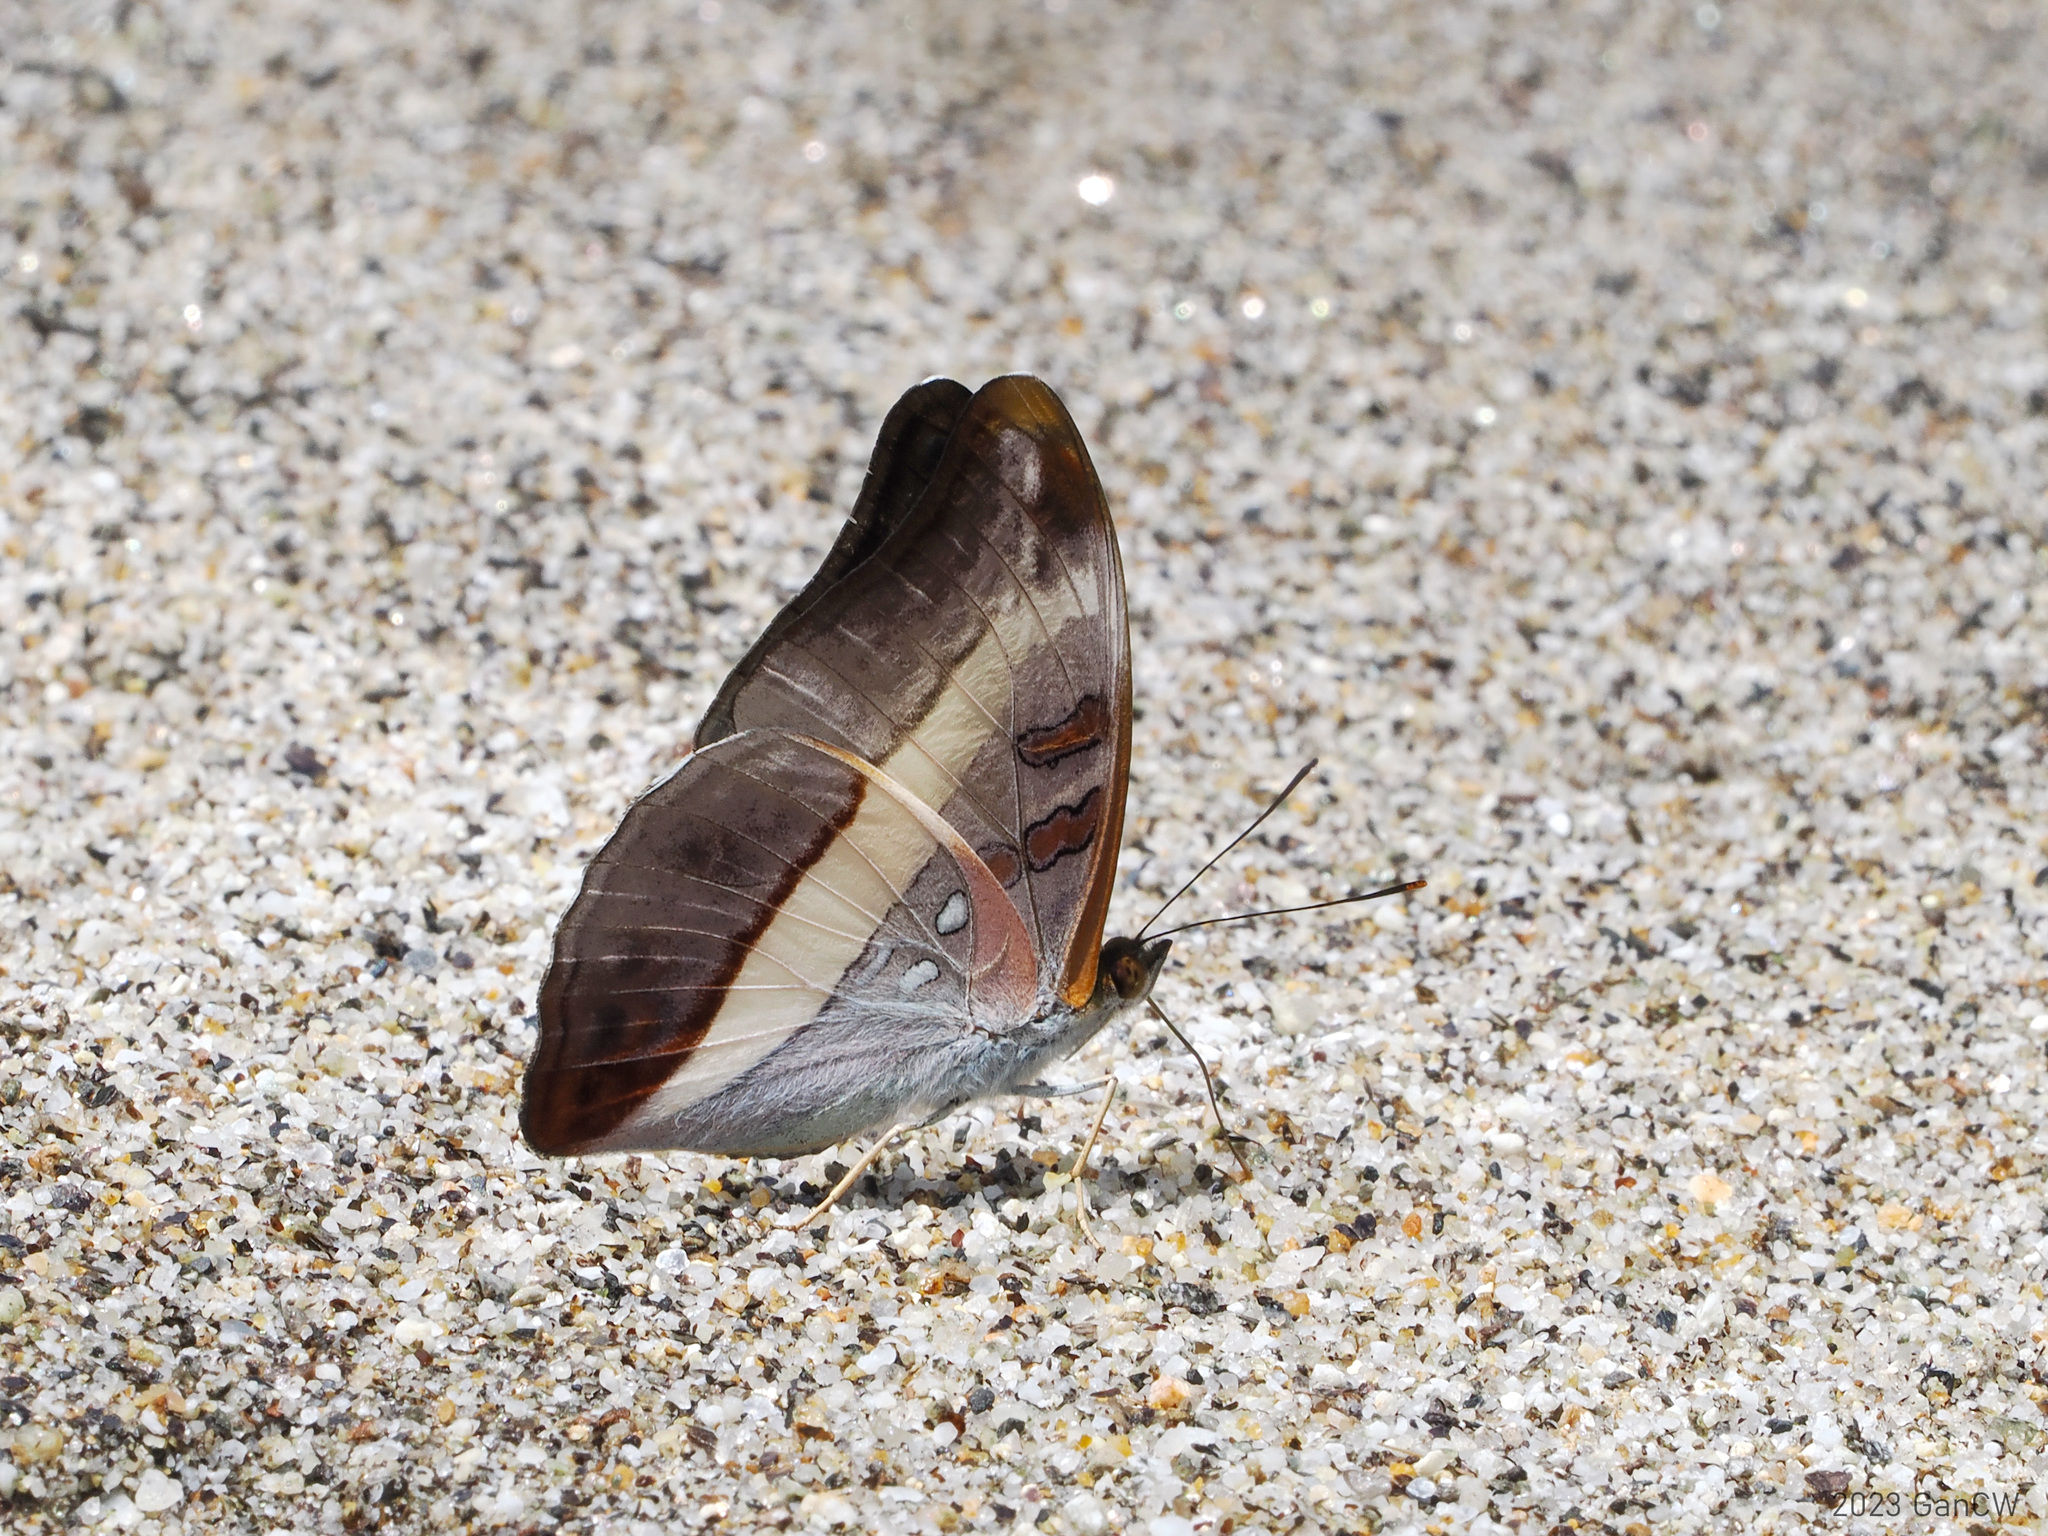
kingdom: Animalia
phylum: Arthropoda
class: Insecta
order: Lepidoptera
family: Nymphalidae
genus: Limenitis
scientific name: Limenitis Parasarpa dudu
